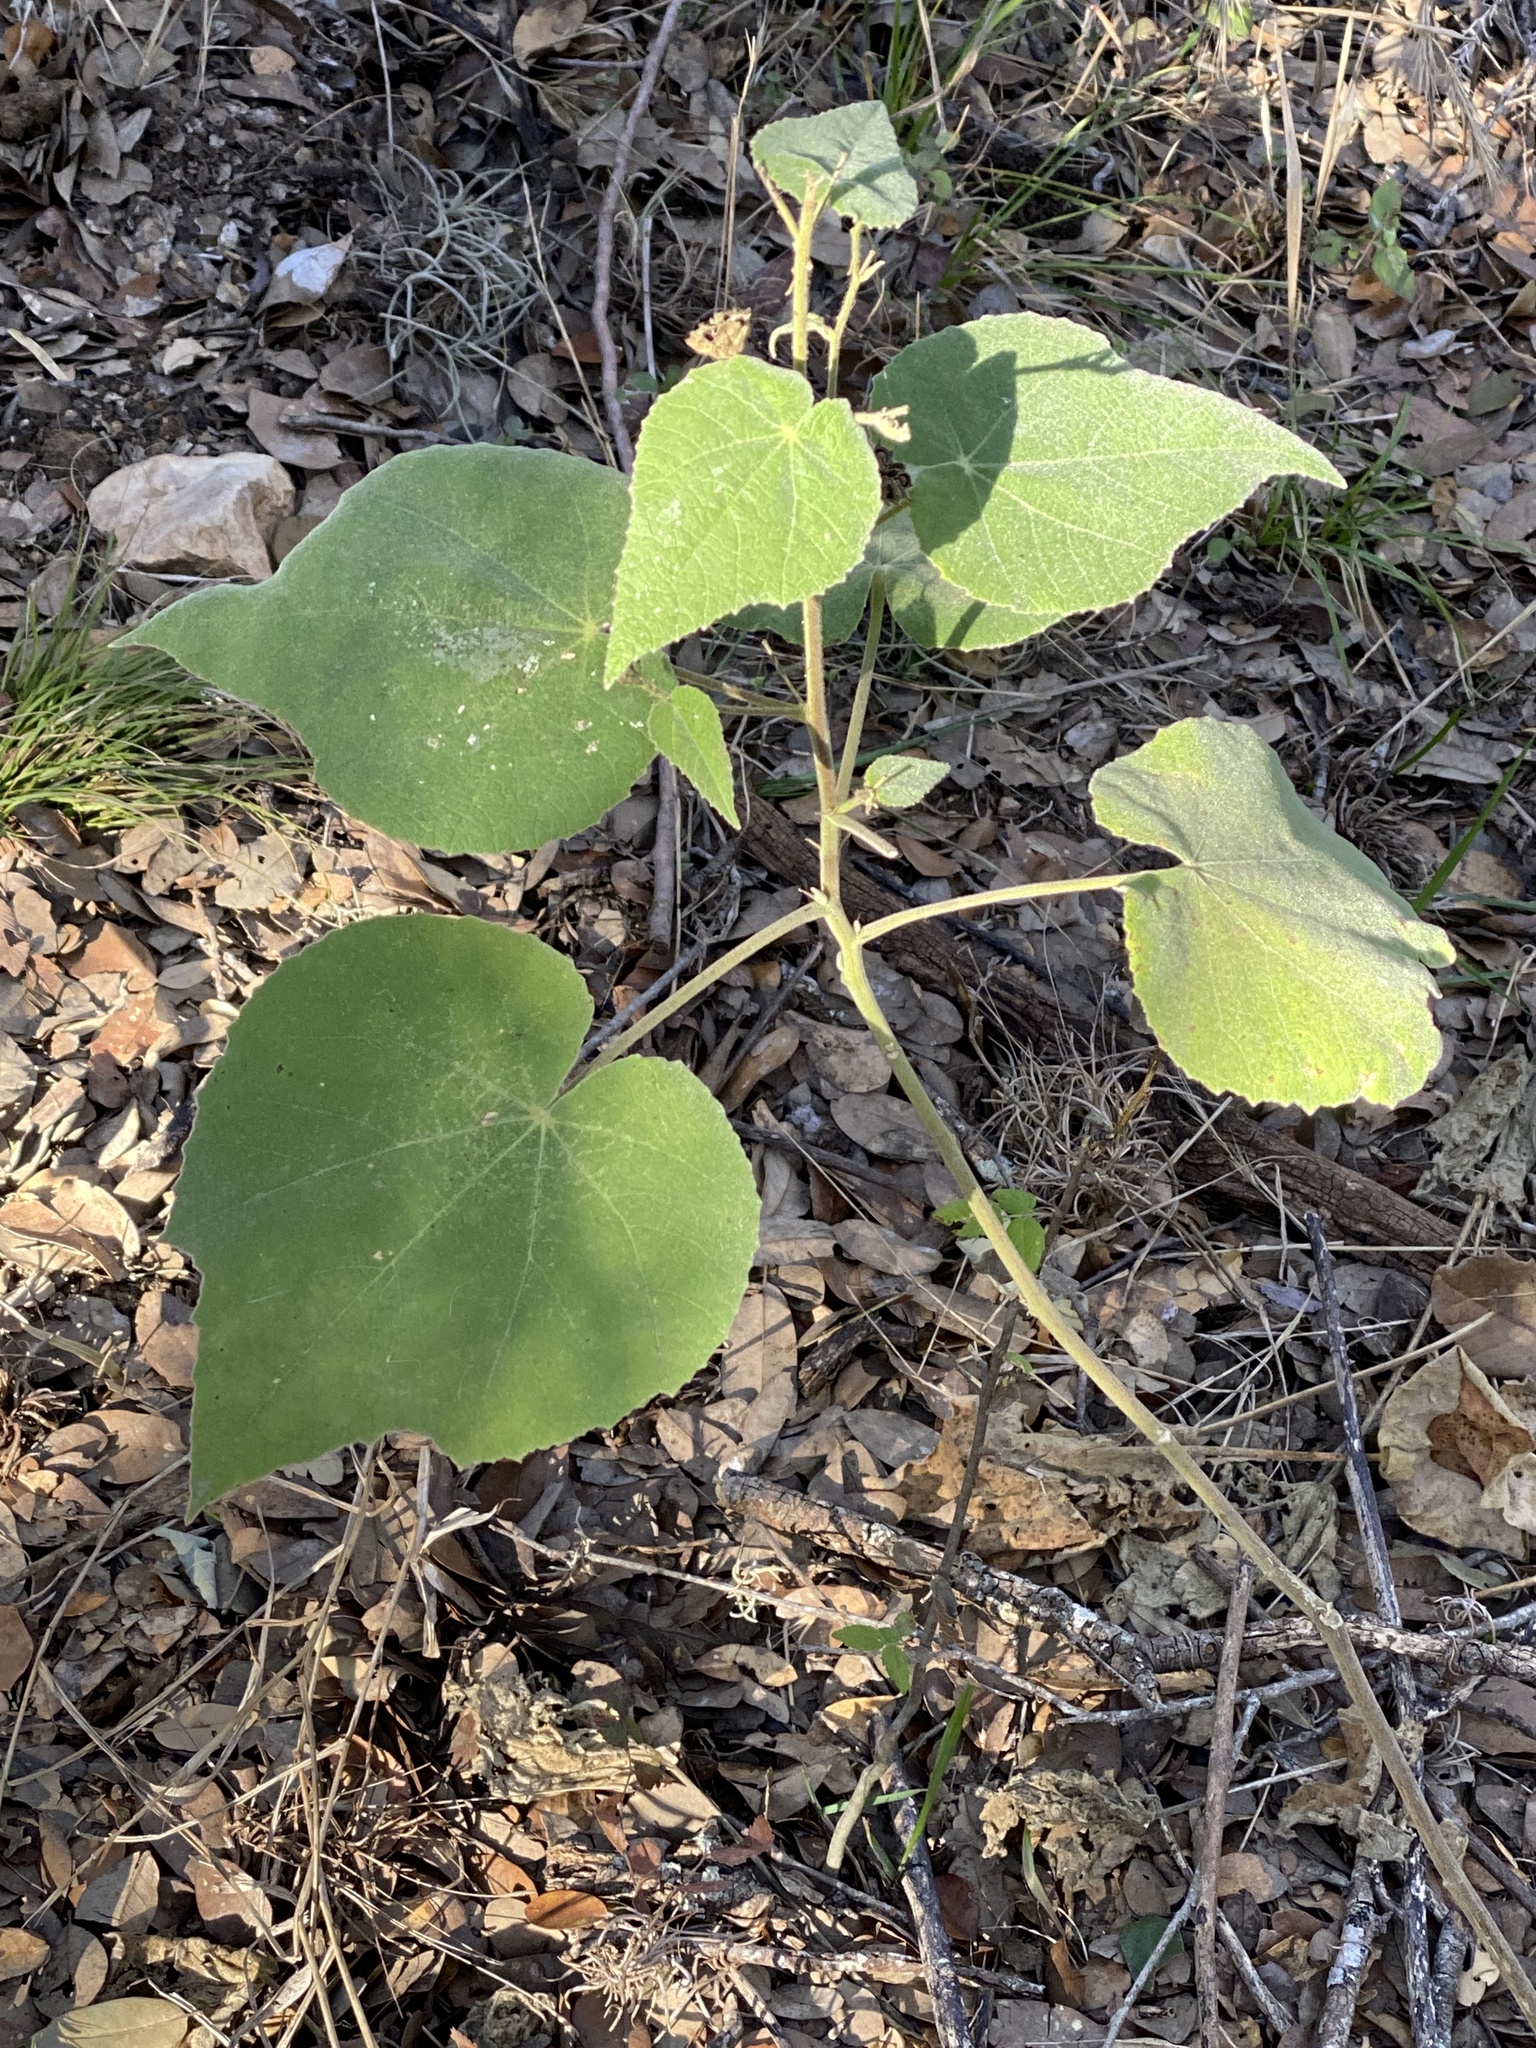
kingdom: Plantae
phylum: Tracheophyta
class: Magnoliopsida
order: Malvales
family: Malvaceae
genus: Allowissadula
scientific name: Allowissadula holosericea
